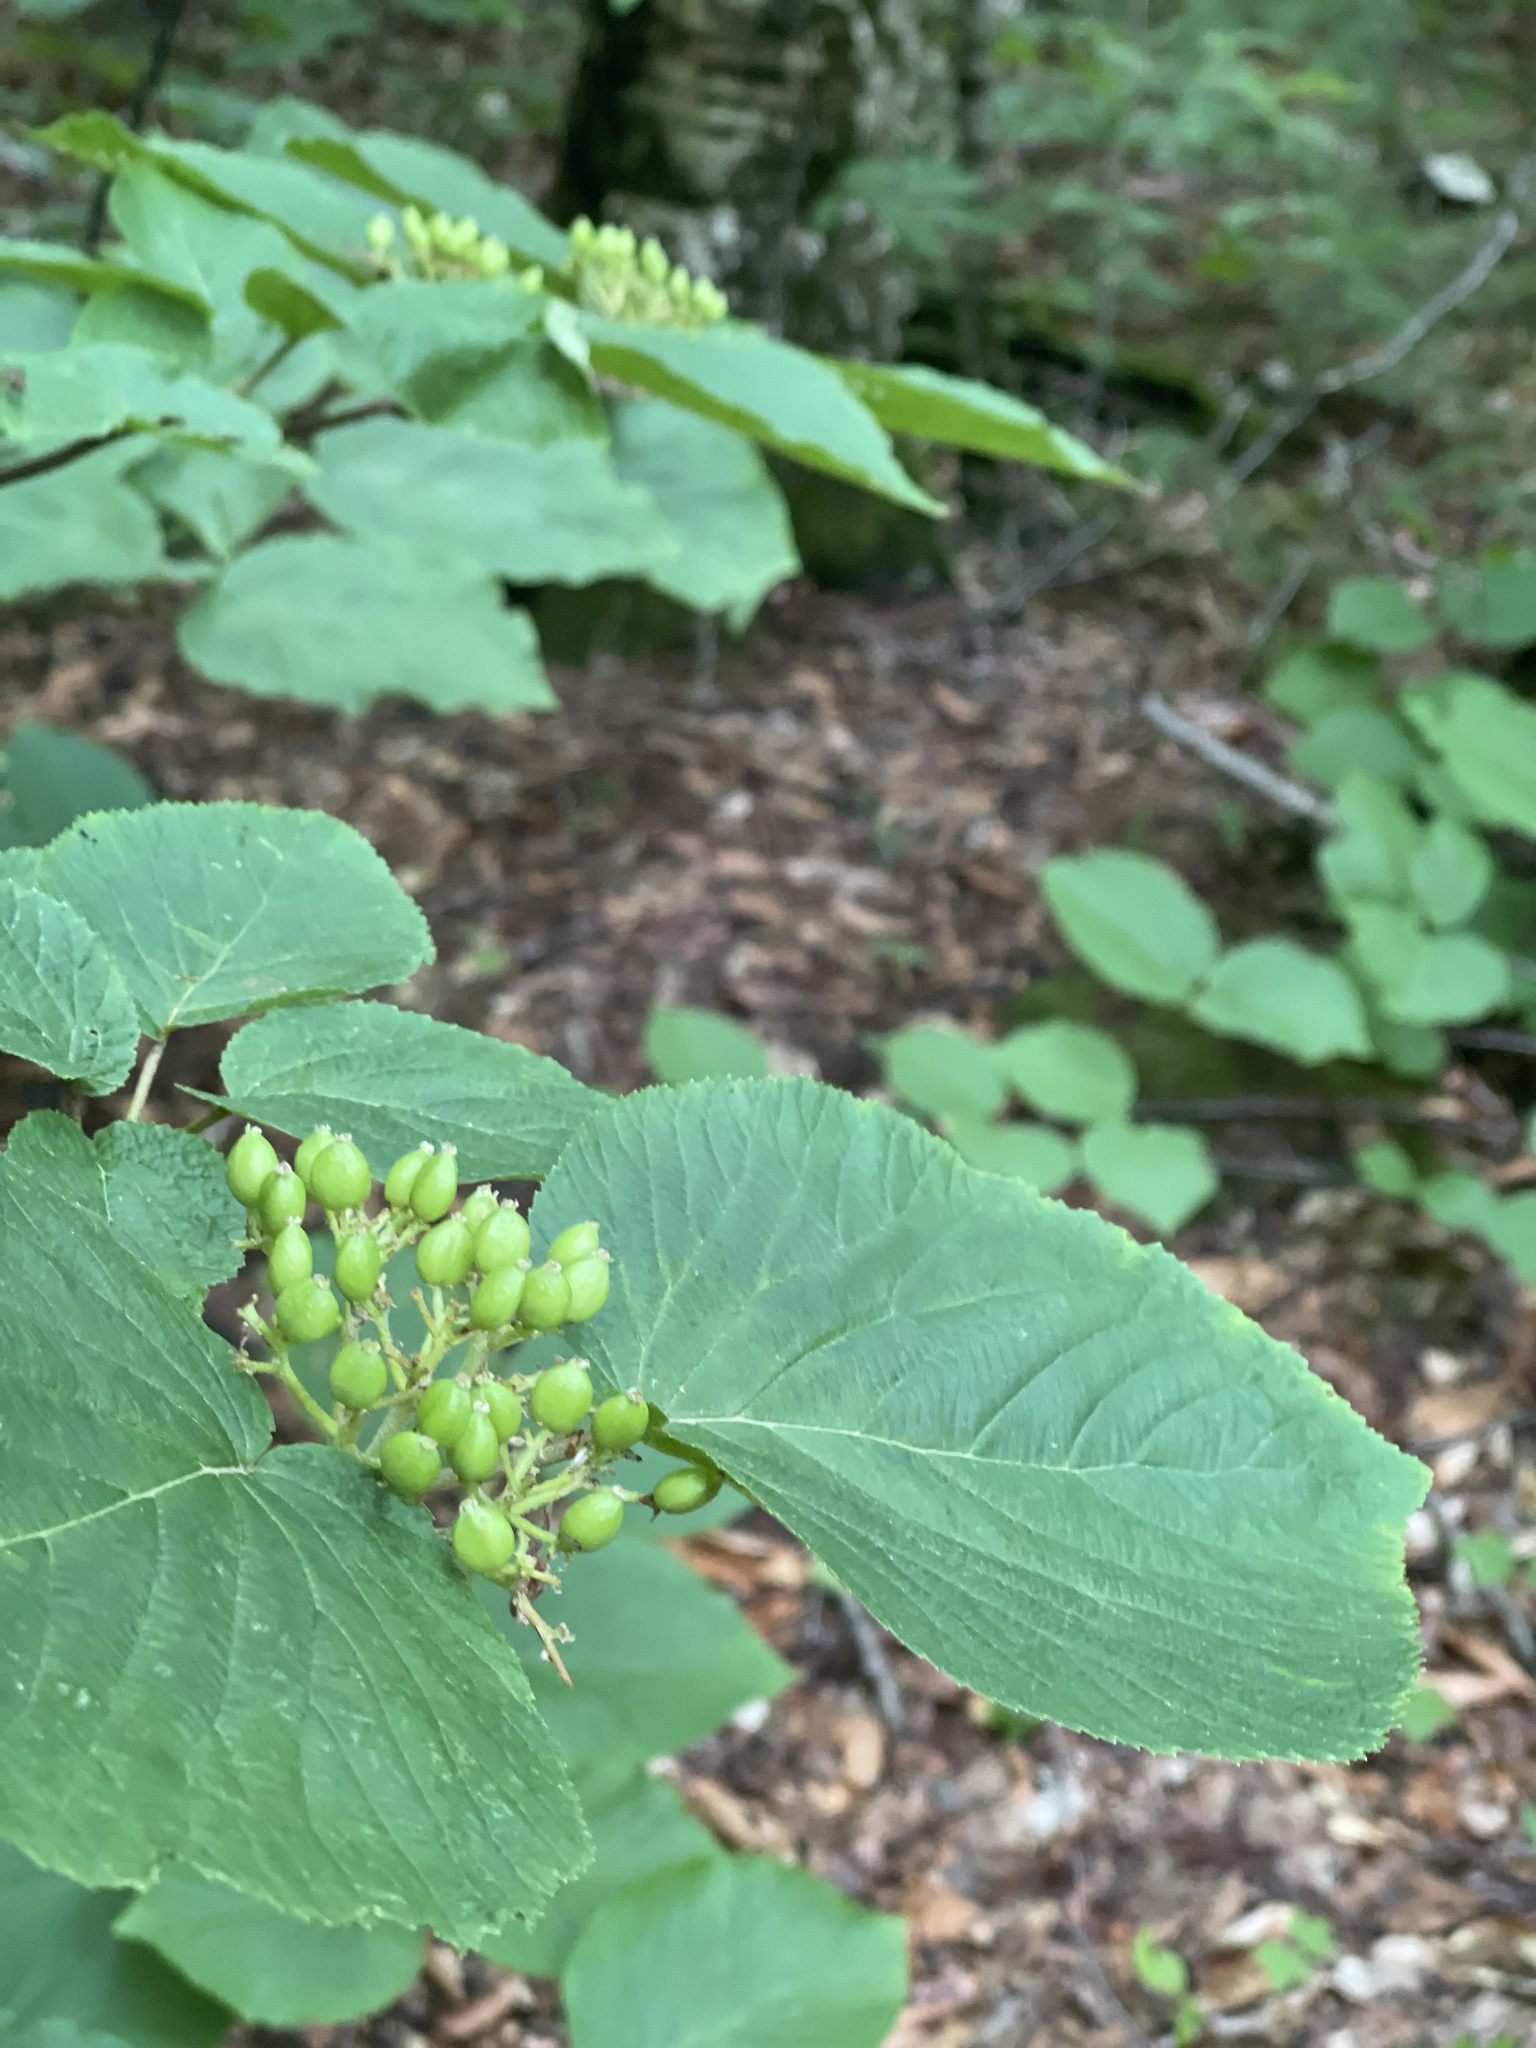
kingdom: Plantae
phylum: Tracheophyta
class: Magnoliopsida
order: Dipsacales
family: Viburnaceae
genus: Viburnum
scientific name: Viburnum lantanoides
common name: Hobblebush
